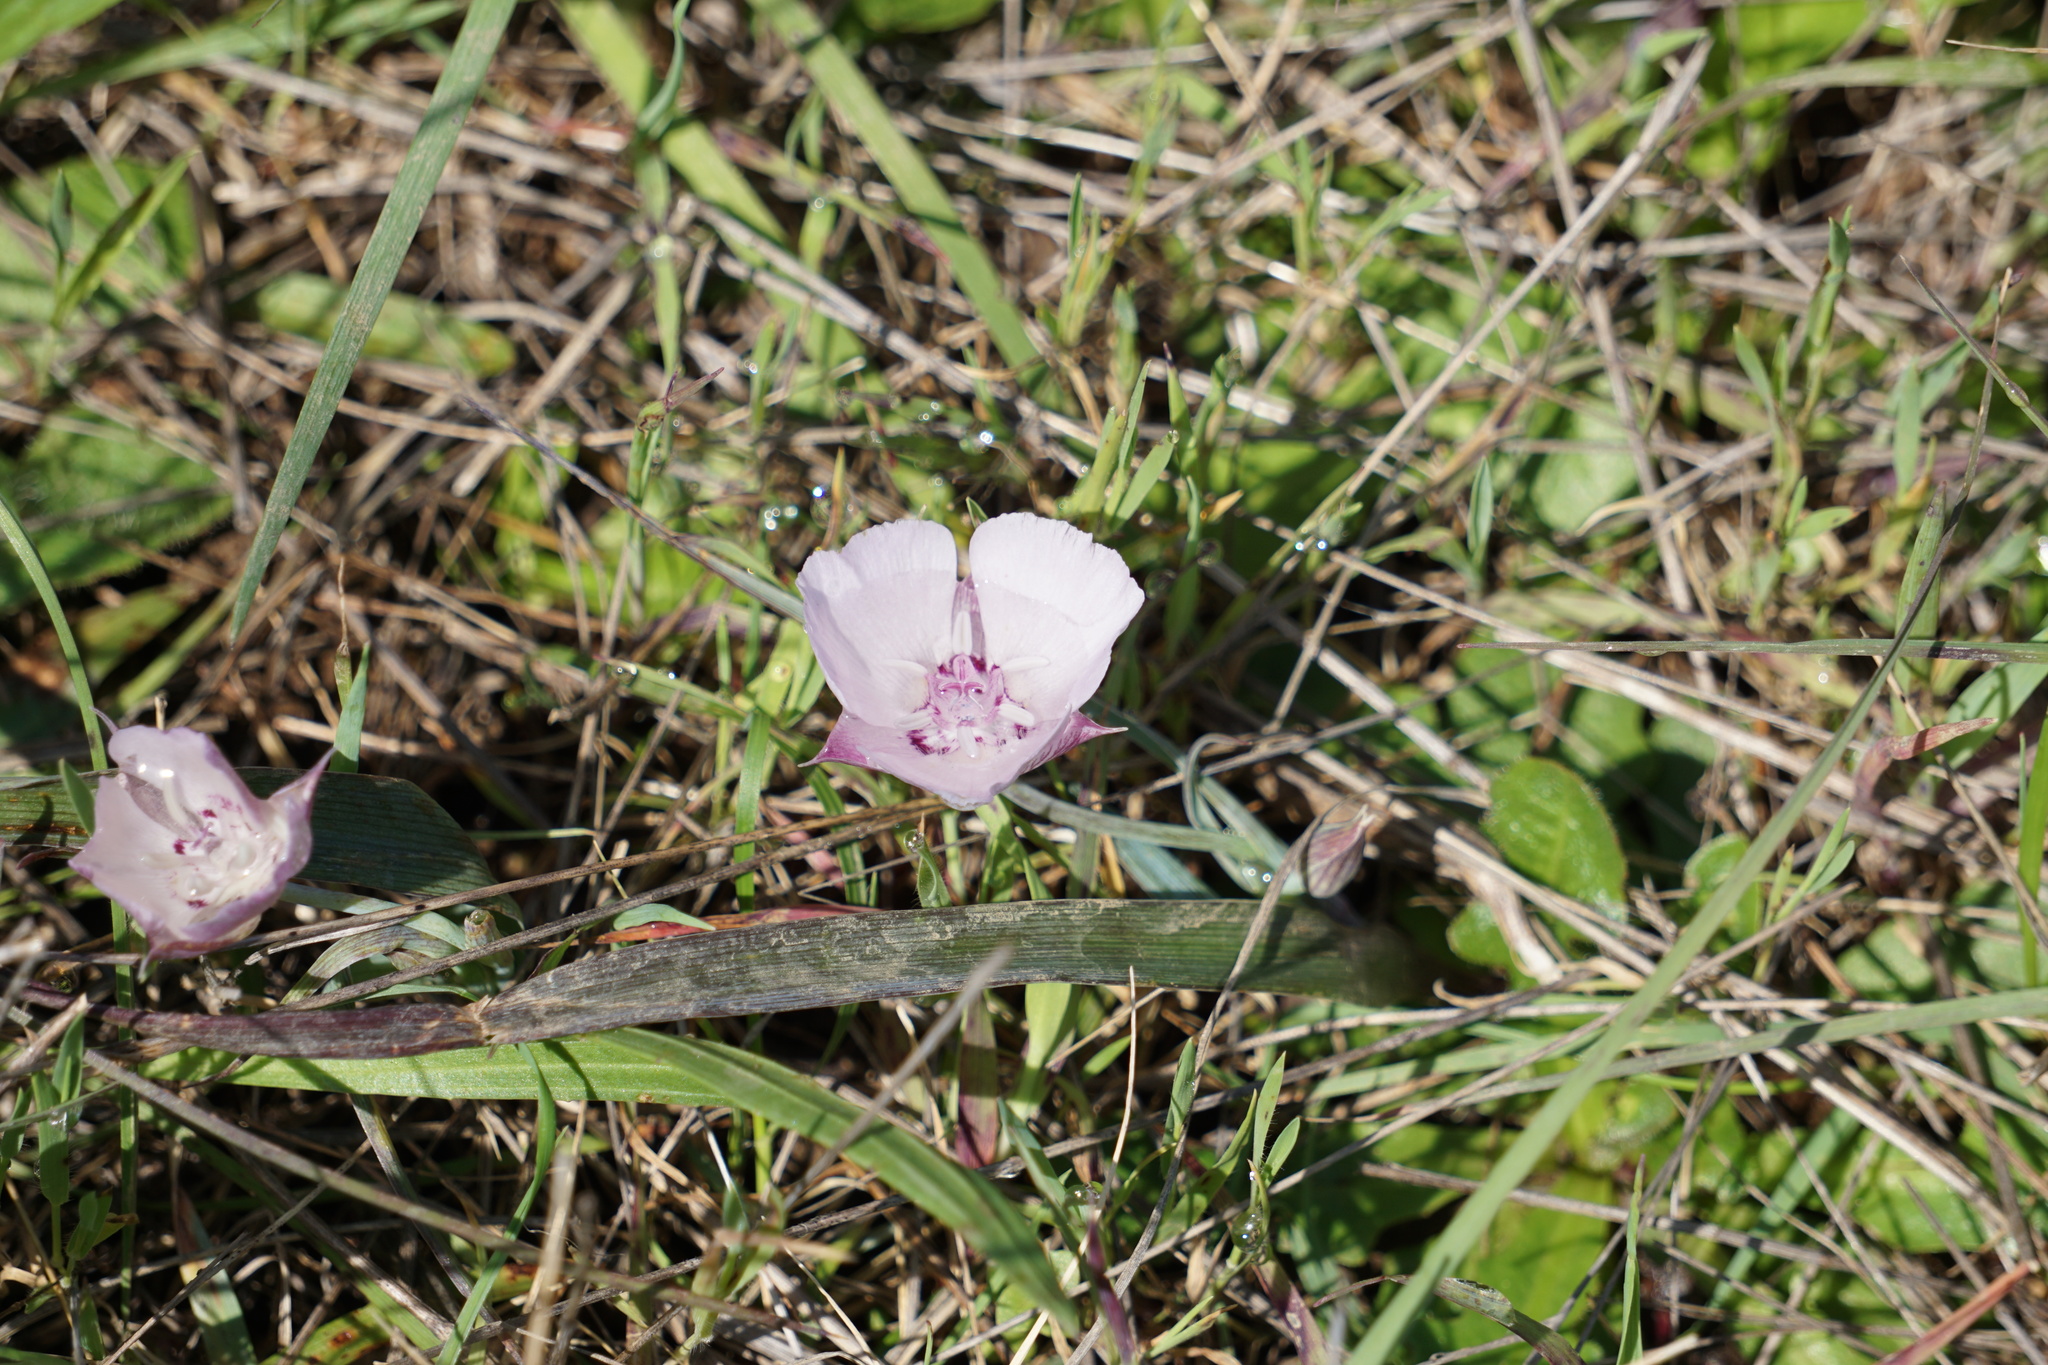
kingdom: Plantae
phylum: Tracheophyta
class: Liliopsida
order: Liliales
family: Liliaceae
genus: Calochortus
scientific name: Calochortus umbellatus
